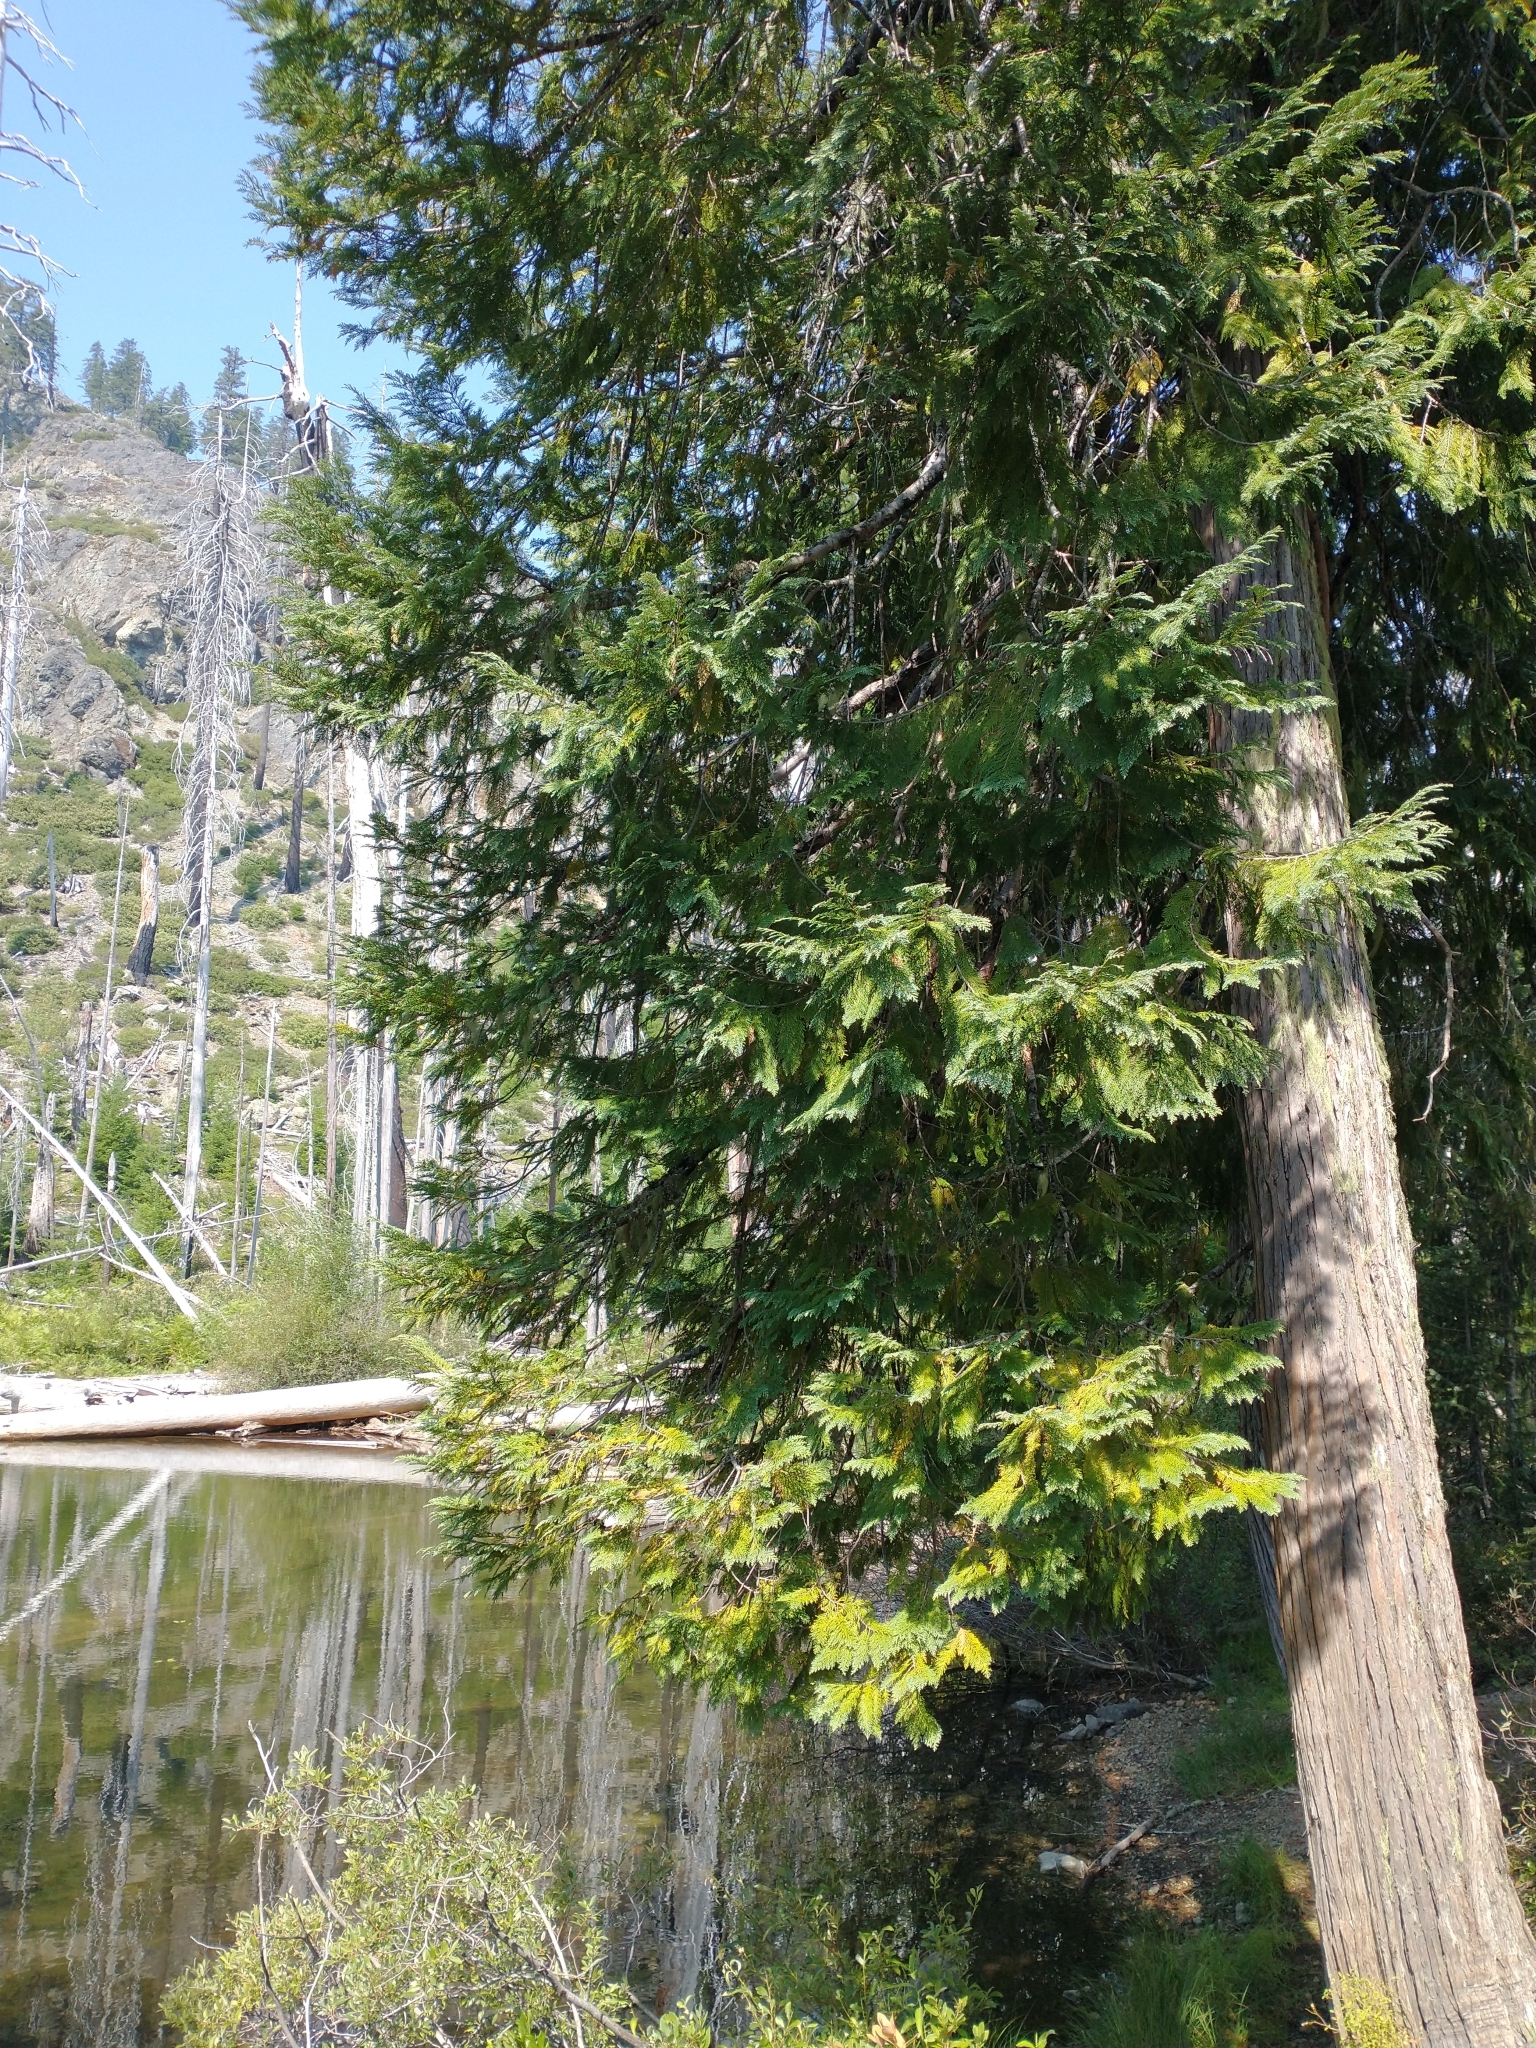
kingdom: Plantae
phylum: Tracheophyta
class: Pinopsida
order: Pinales
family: Cupressaceae
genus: Chamaecyparis
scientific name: Chamaecyparis lawsoniana
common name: Lawson's cypress
